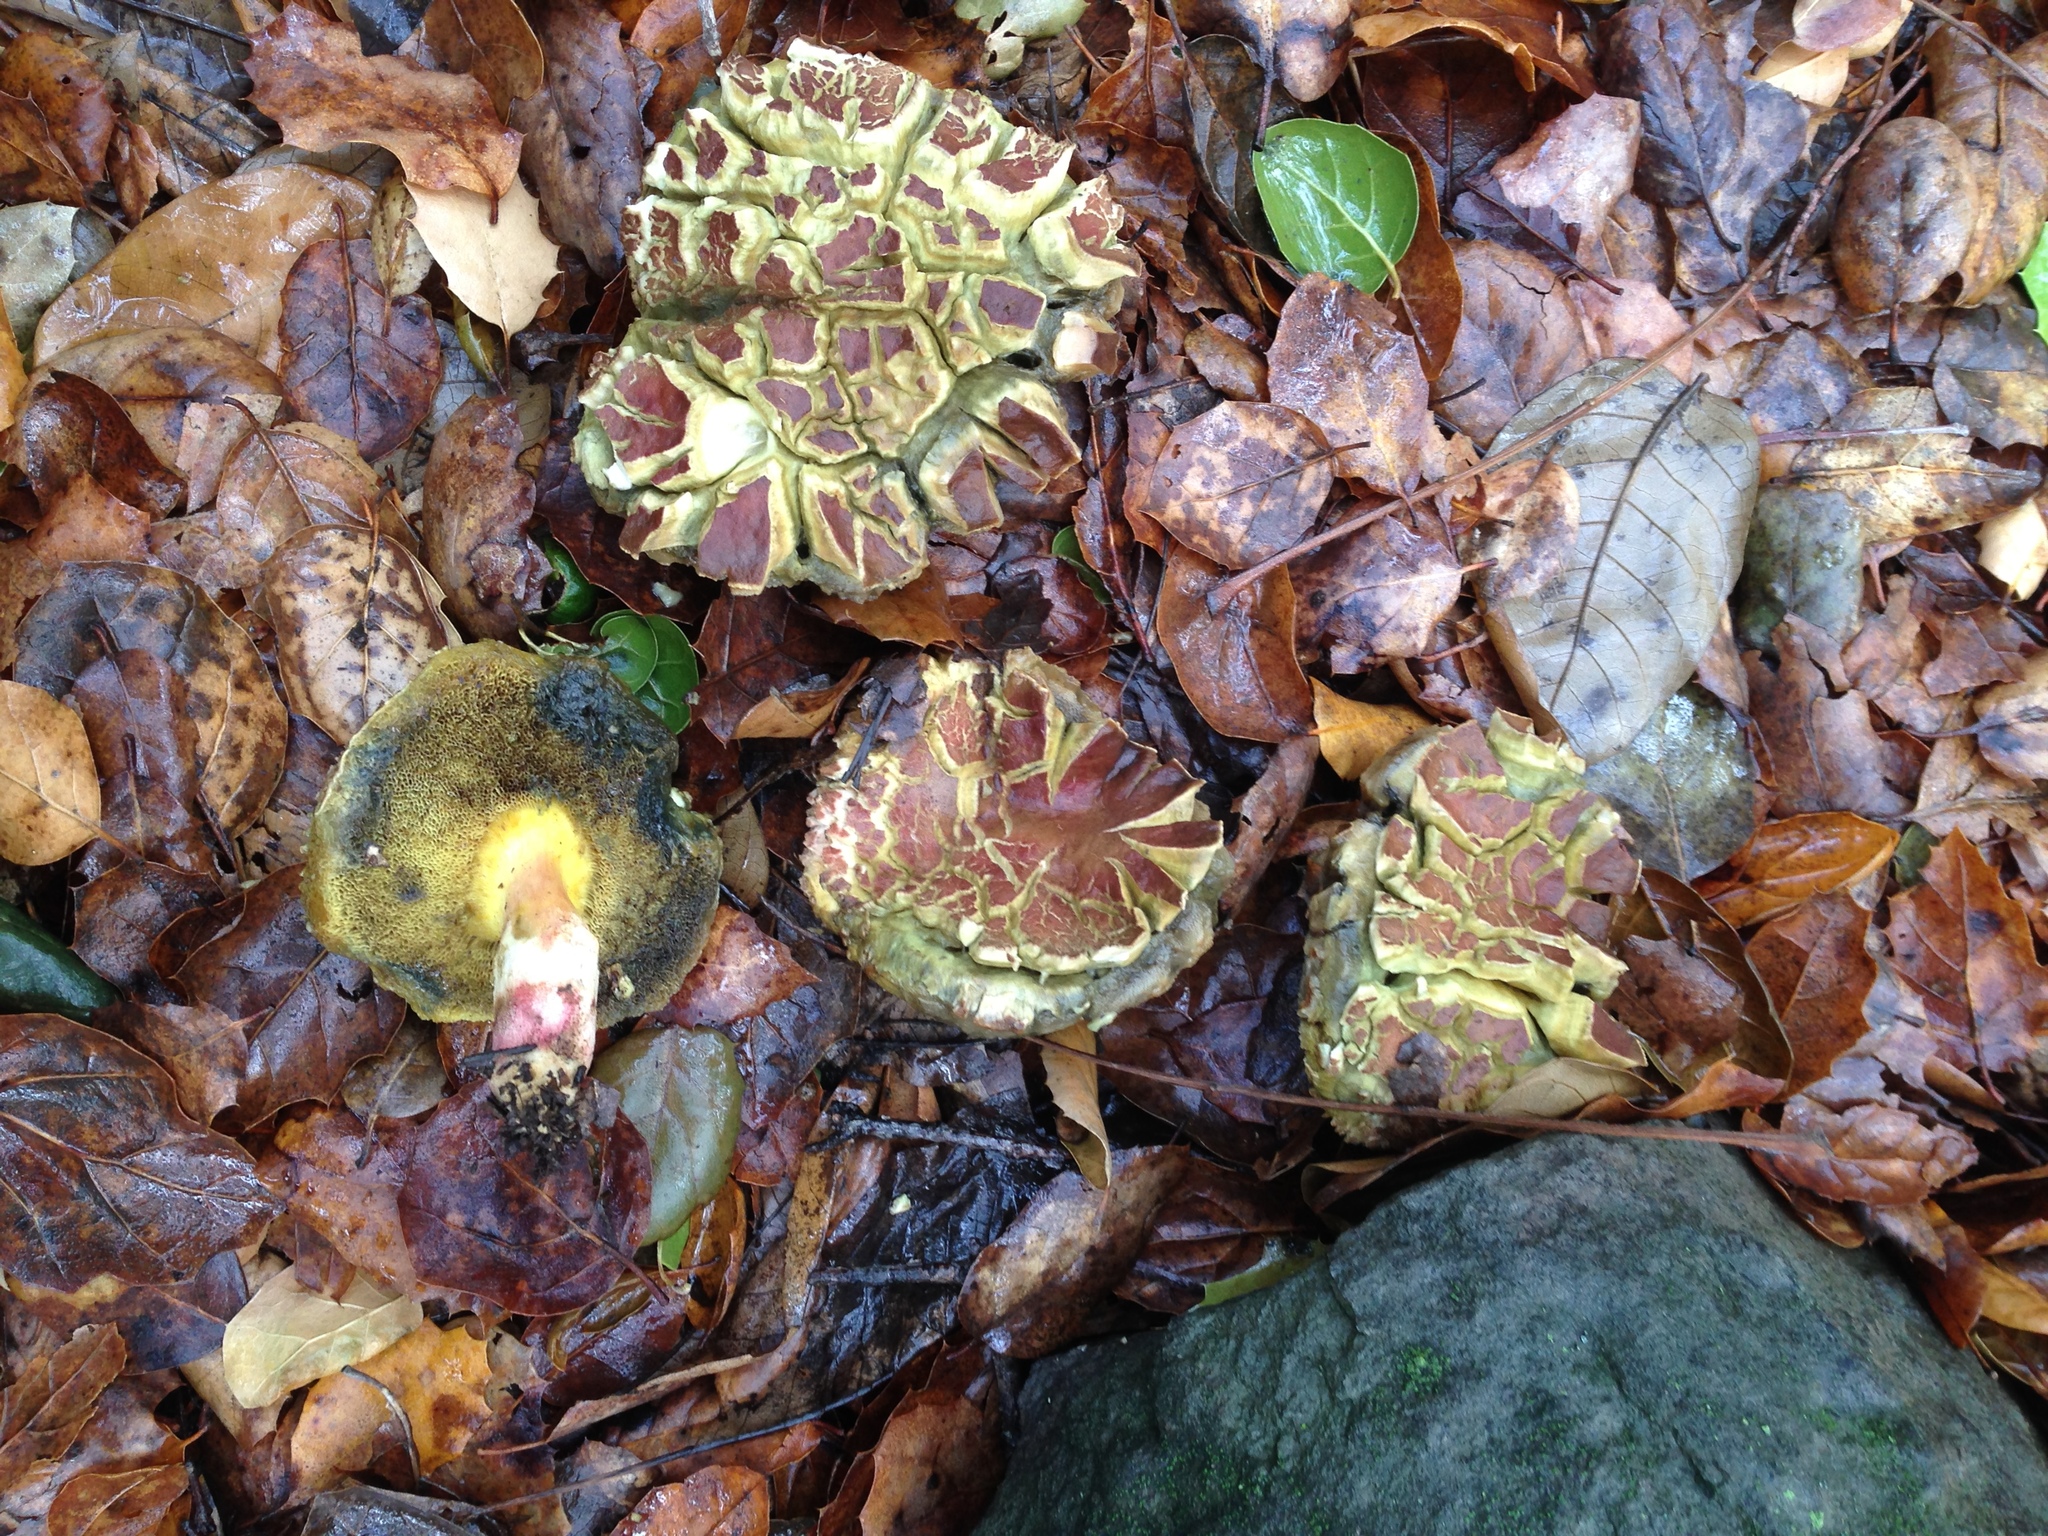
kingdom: Fungi
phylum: Basidiomycota
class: Agaricomycetes
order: Boletales
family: Boletaceae
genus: Xerocomellus
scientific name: Xerocomellus dryophilus
